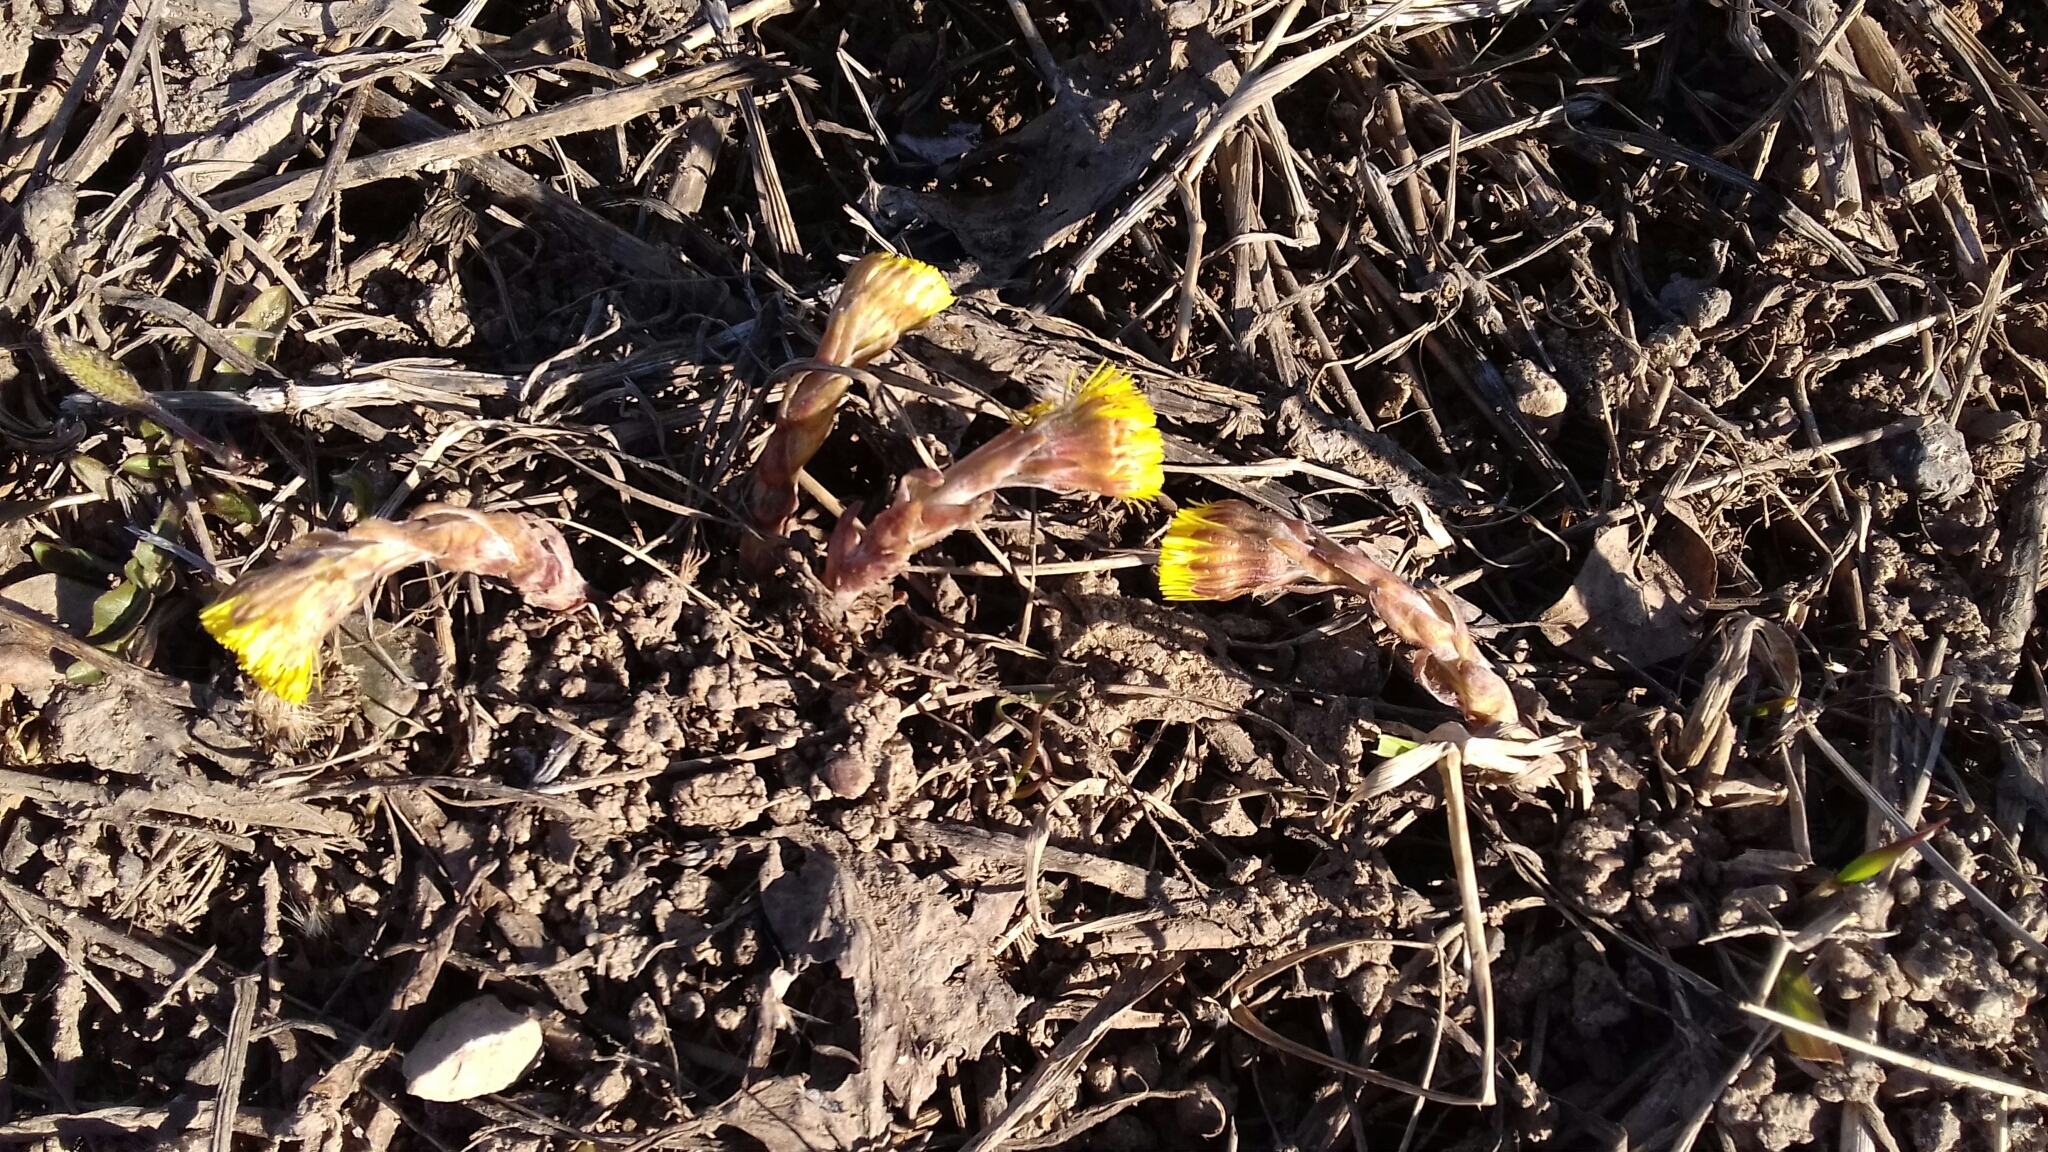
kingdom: Plantae
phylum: Tracheophyta
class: Magnoliopsida
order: Asterales
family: Asteraceae
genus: Tussilago
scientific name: Tussilago farfara
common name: Coltsfoot
